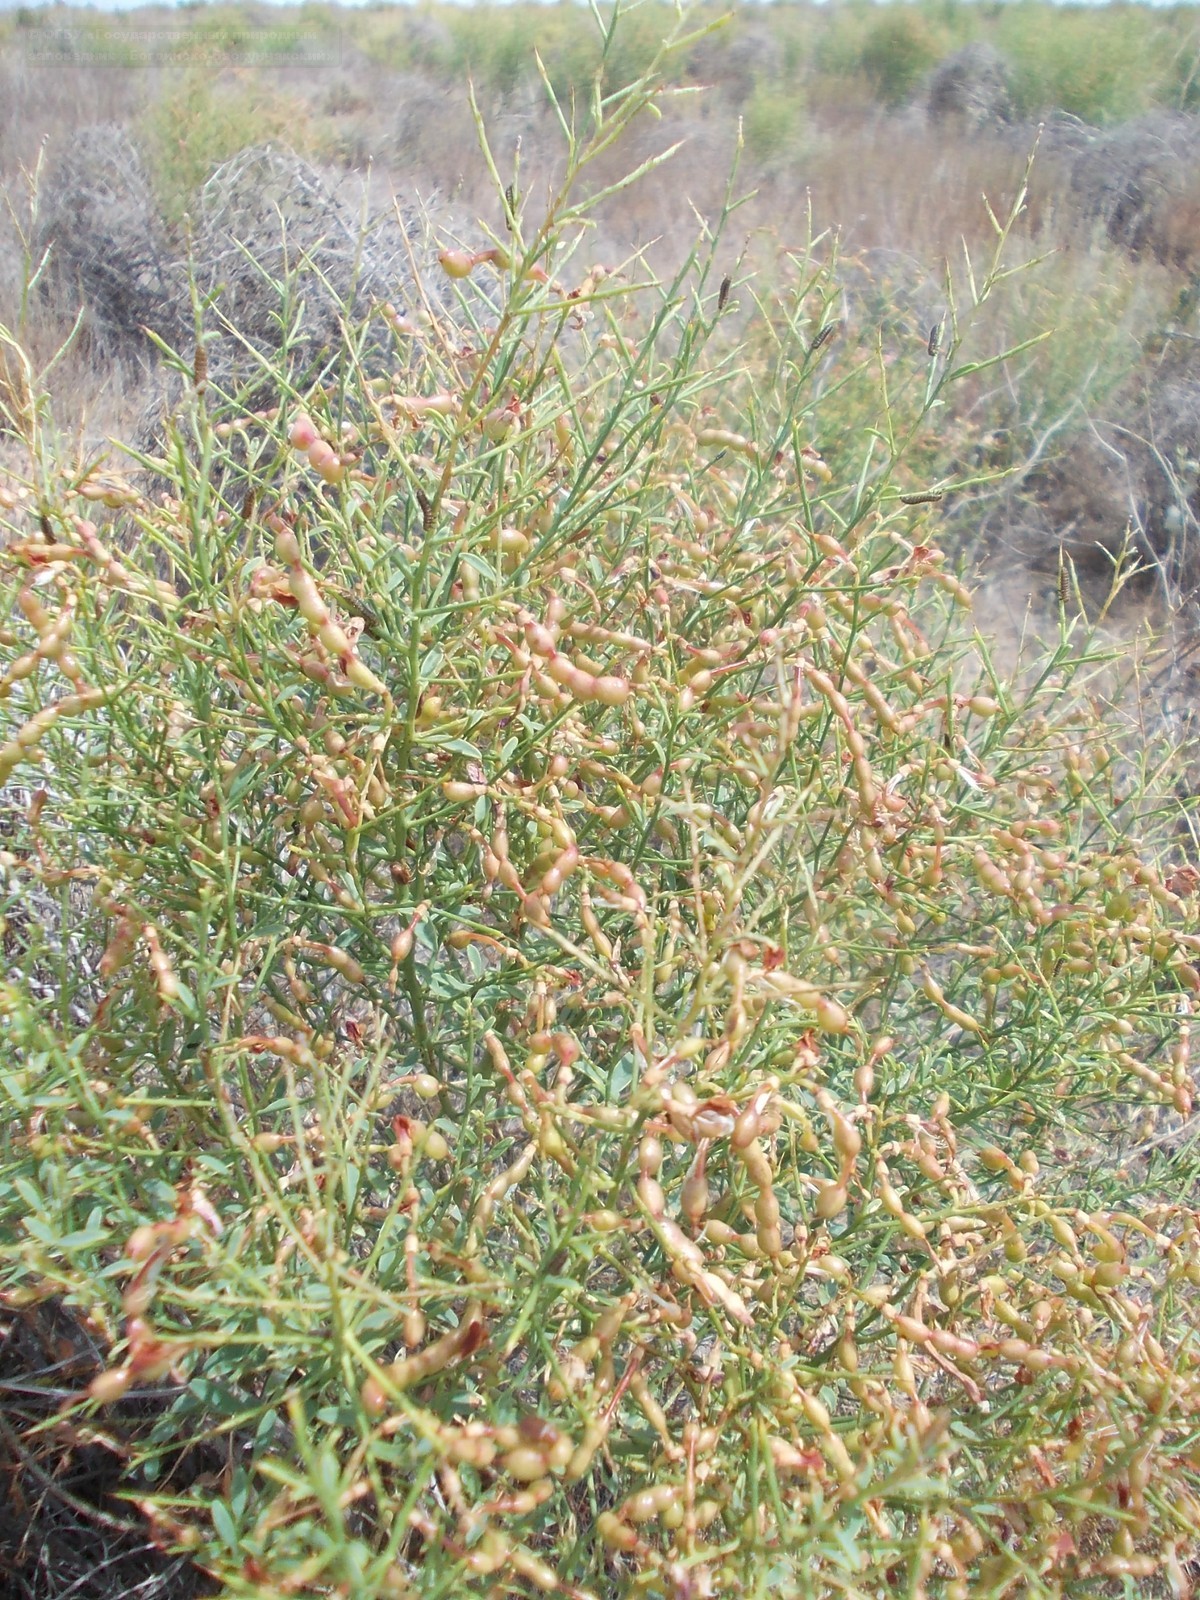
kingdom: Plantae
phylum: Tracheophyta
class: Magnoliopsida
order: Fabales
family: Fabaceae
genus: Alhagi
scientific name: Alhagi pseudalhagi
